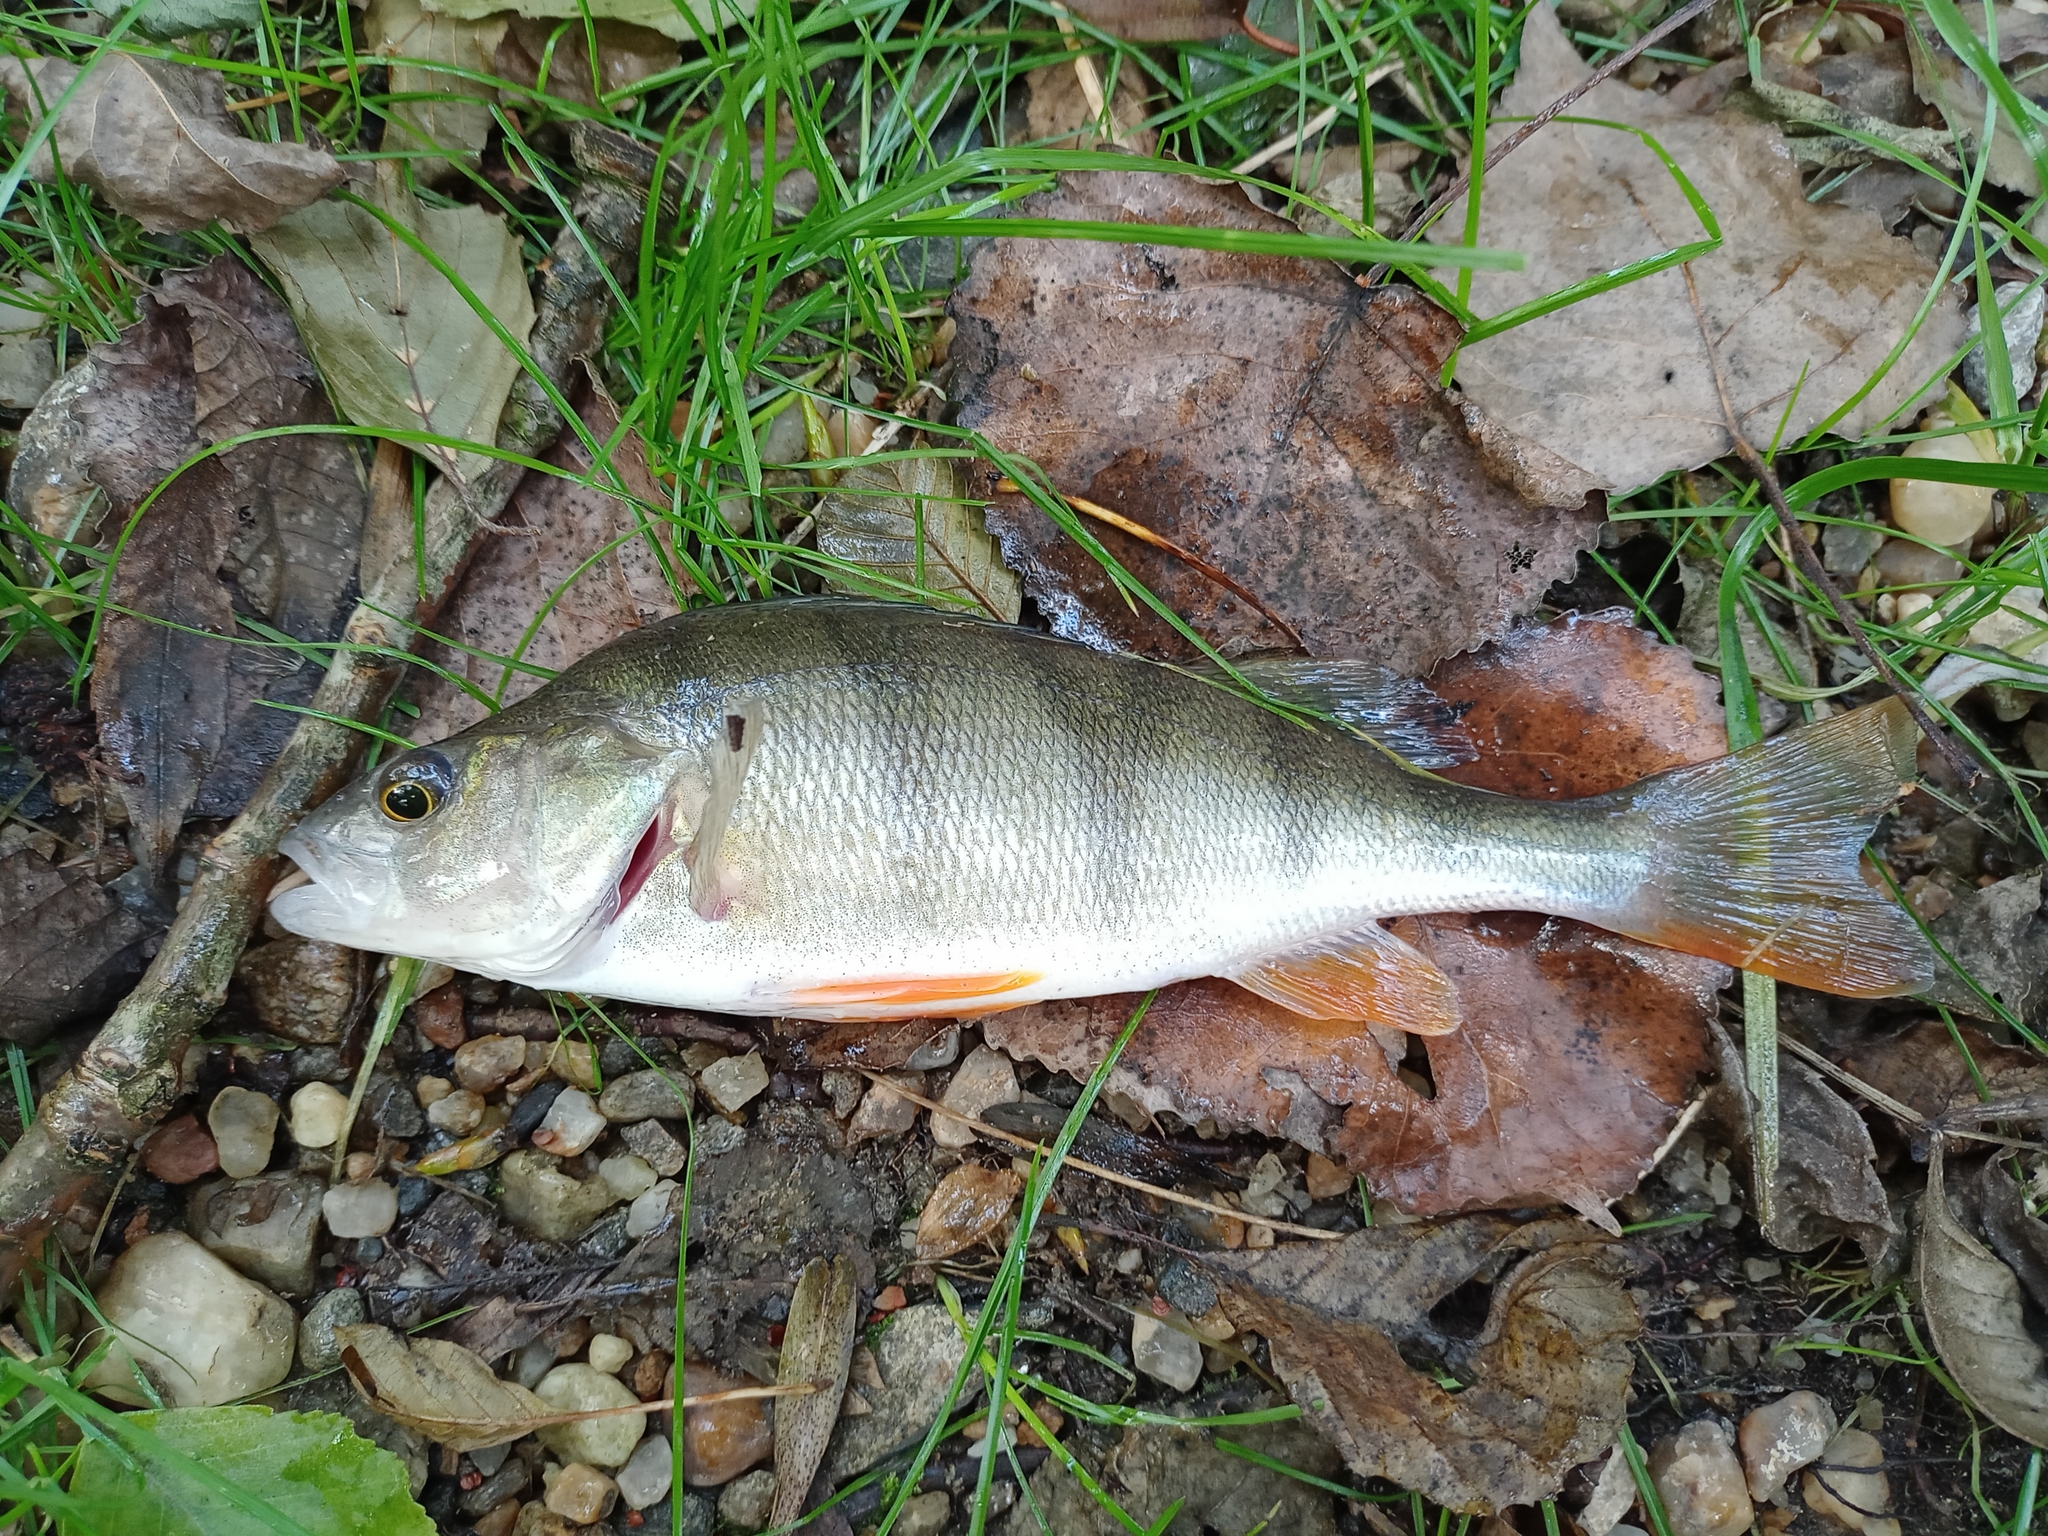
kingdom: Animalia
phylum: Chordata
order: Perciformes
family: Percidae
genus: Perca
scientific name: Perca fluviatilis
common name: Perch
